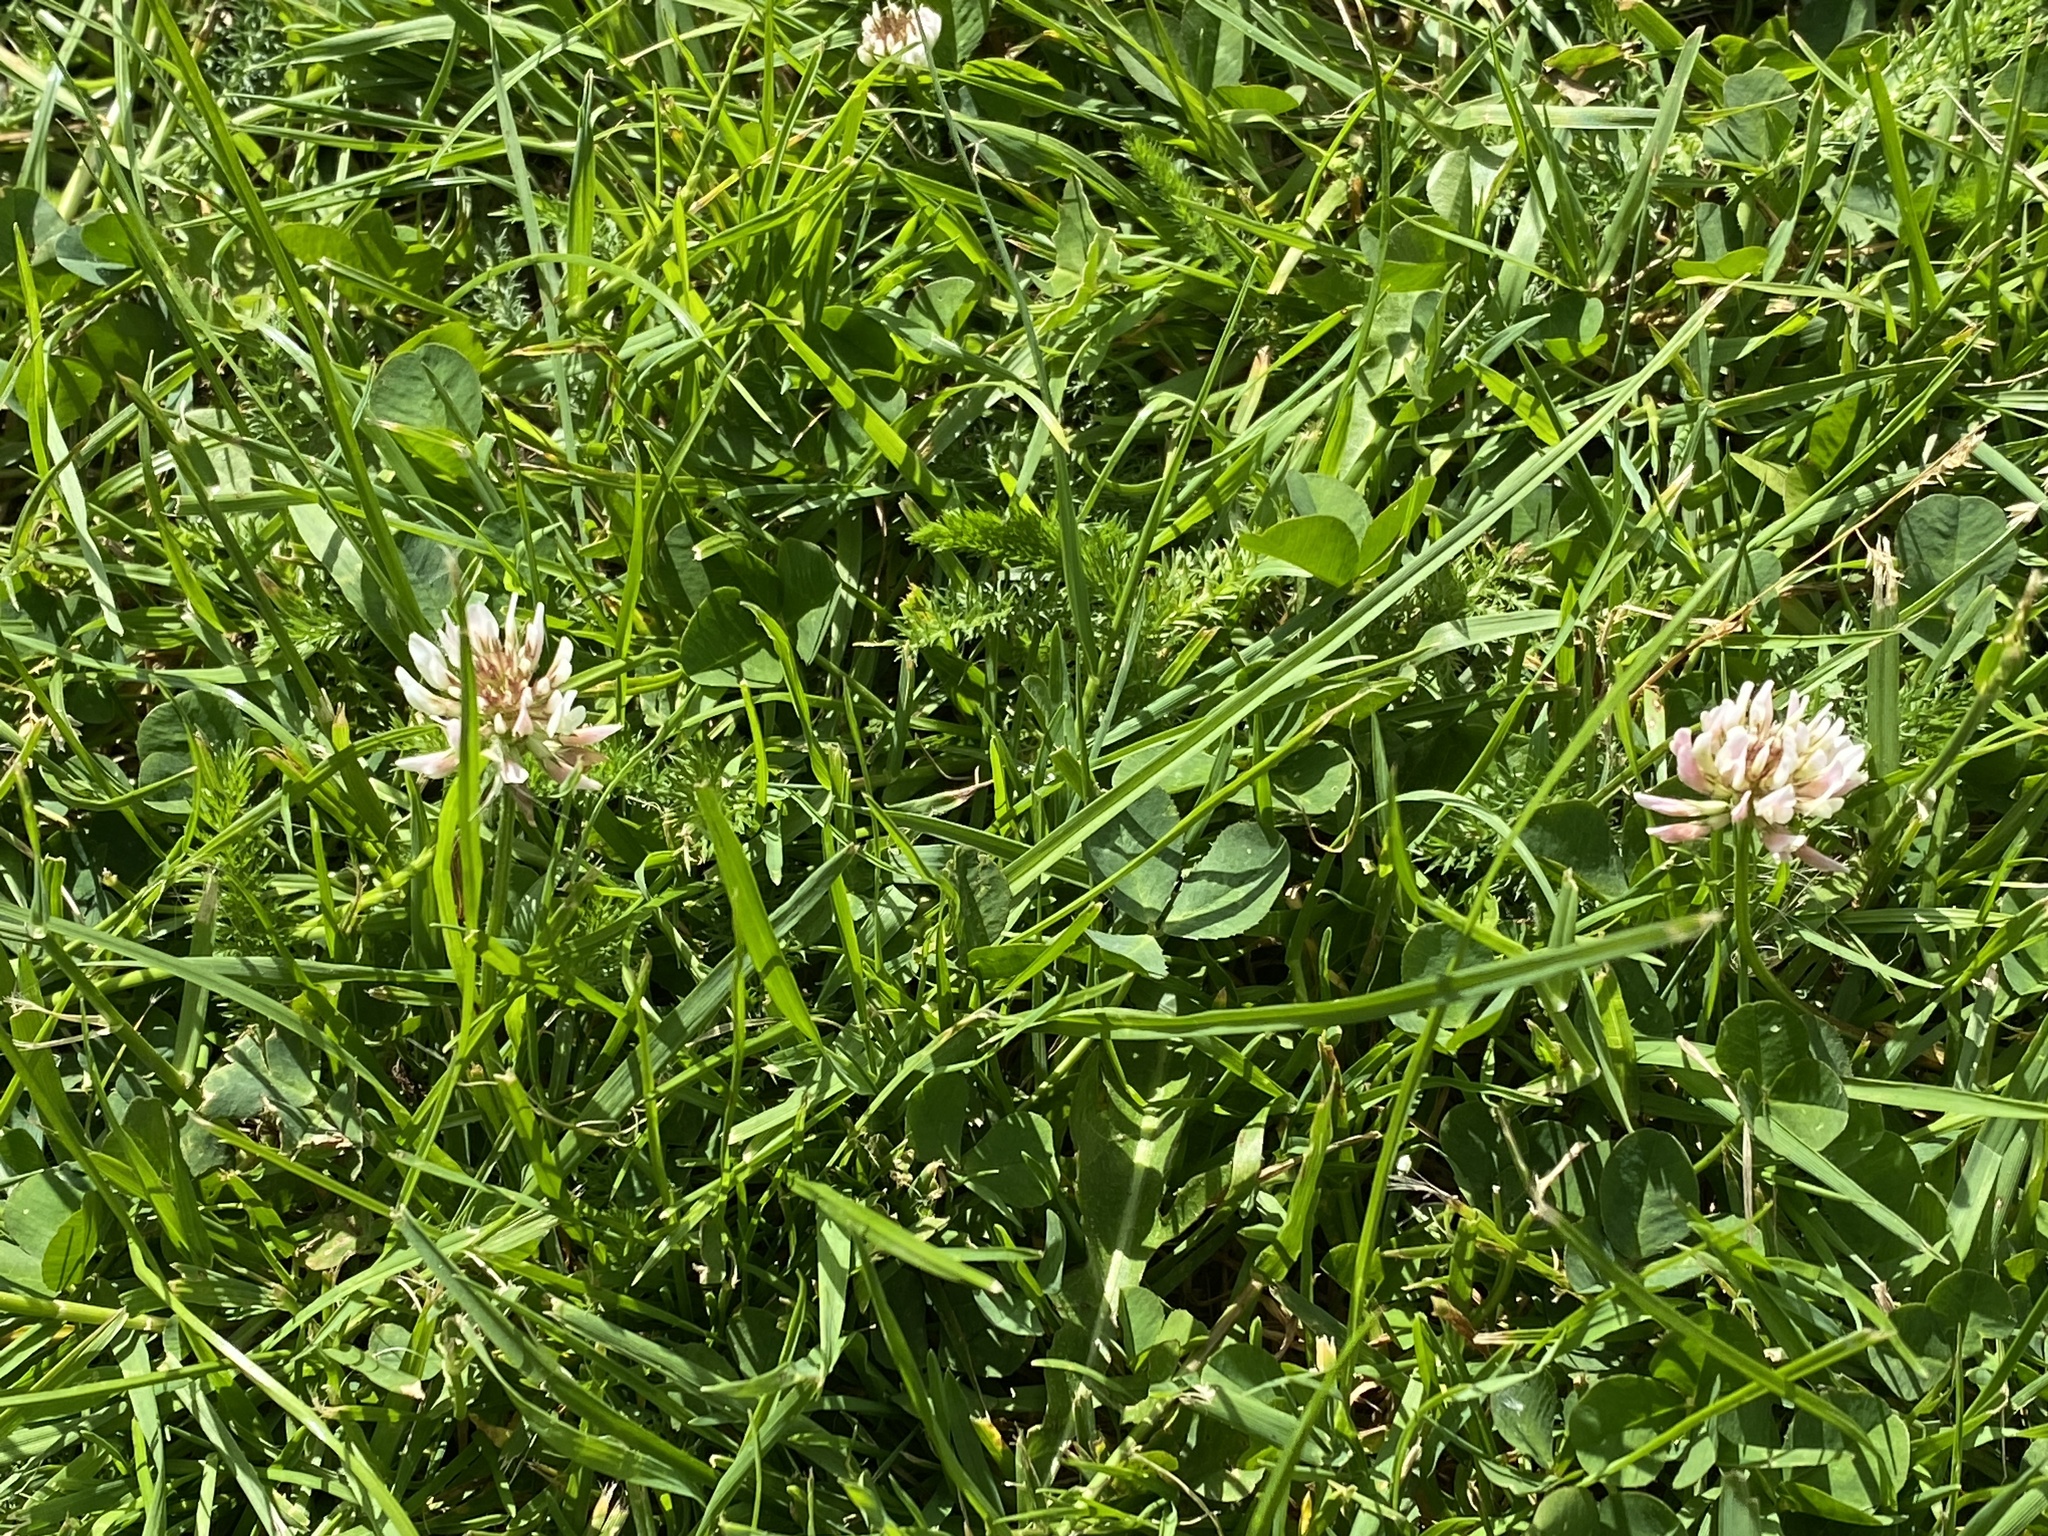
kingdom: Plantae
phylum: Tracheophyta
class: Magnoliopsida
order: Fabales
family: Fabaceae
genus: Trifolium
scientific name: Trifolium repens
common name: White clover
